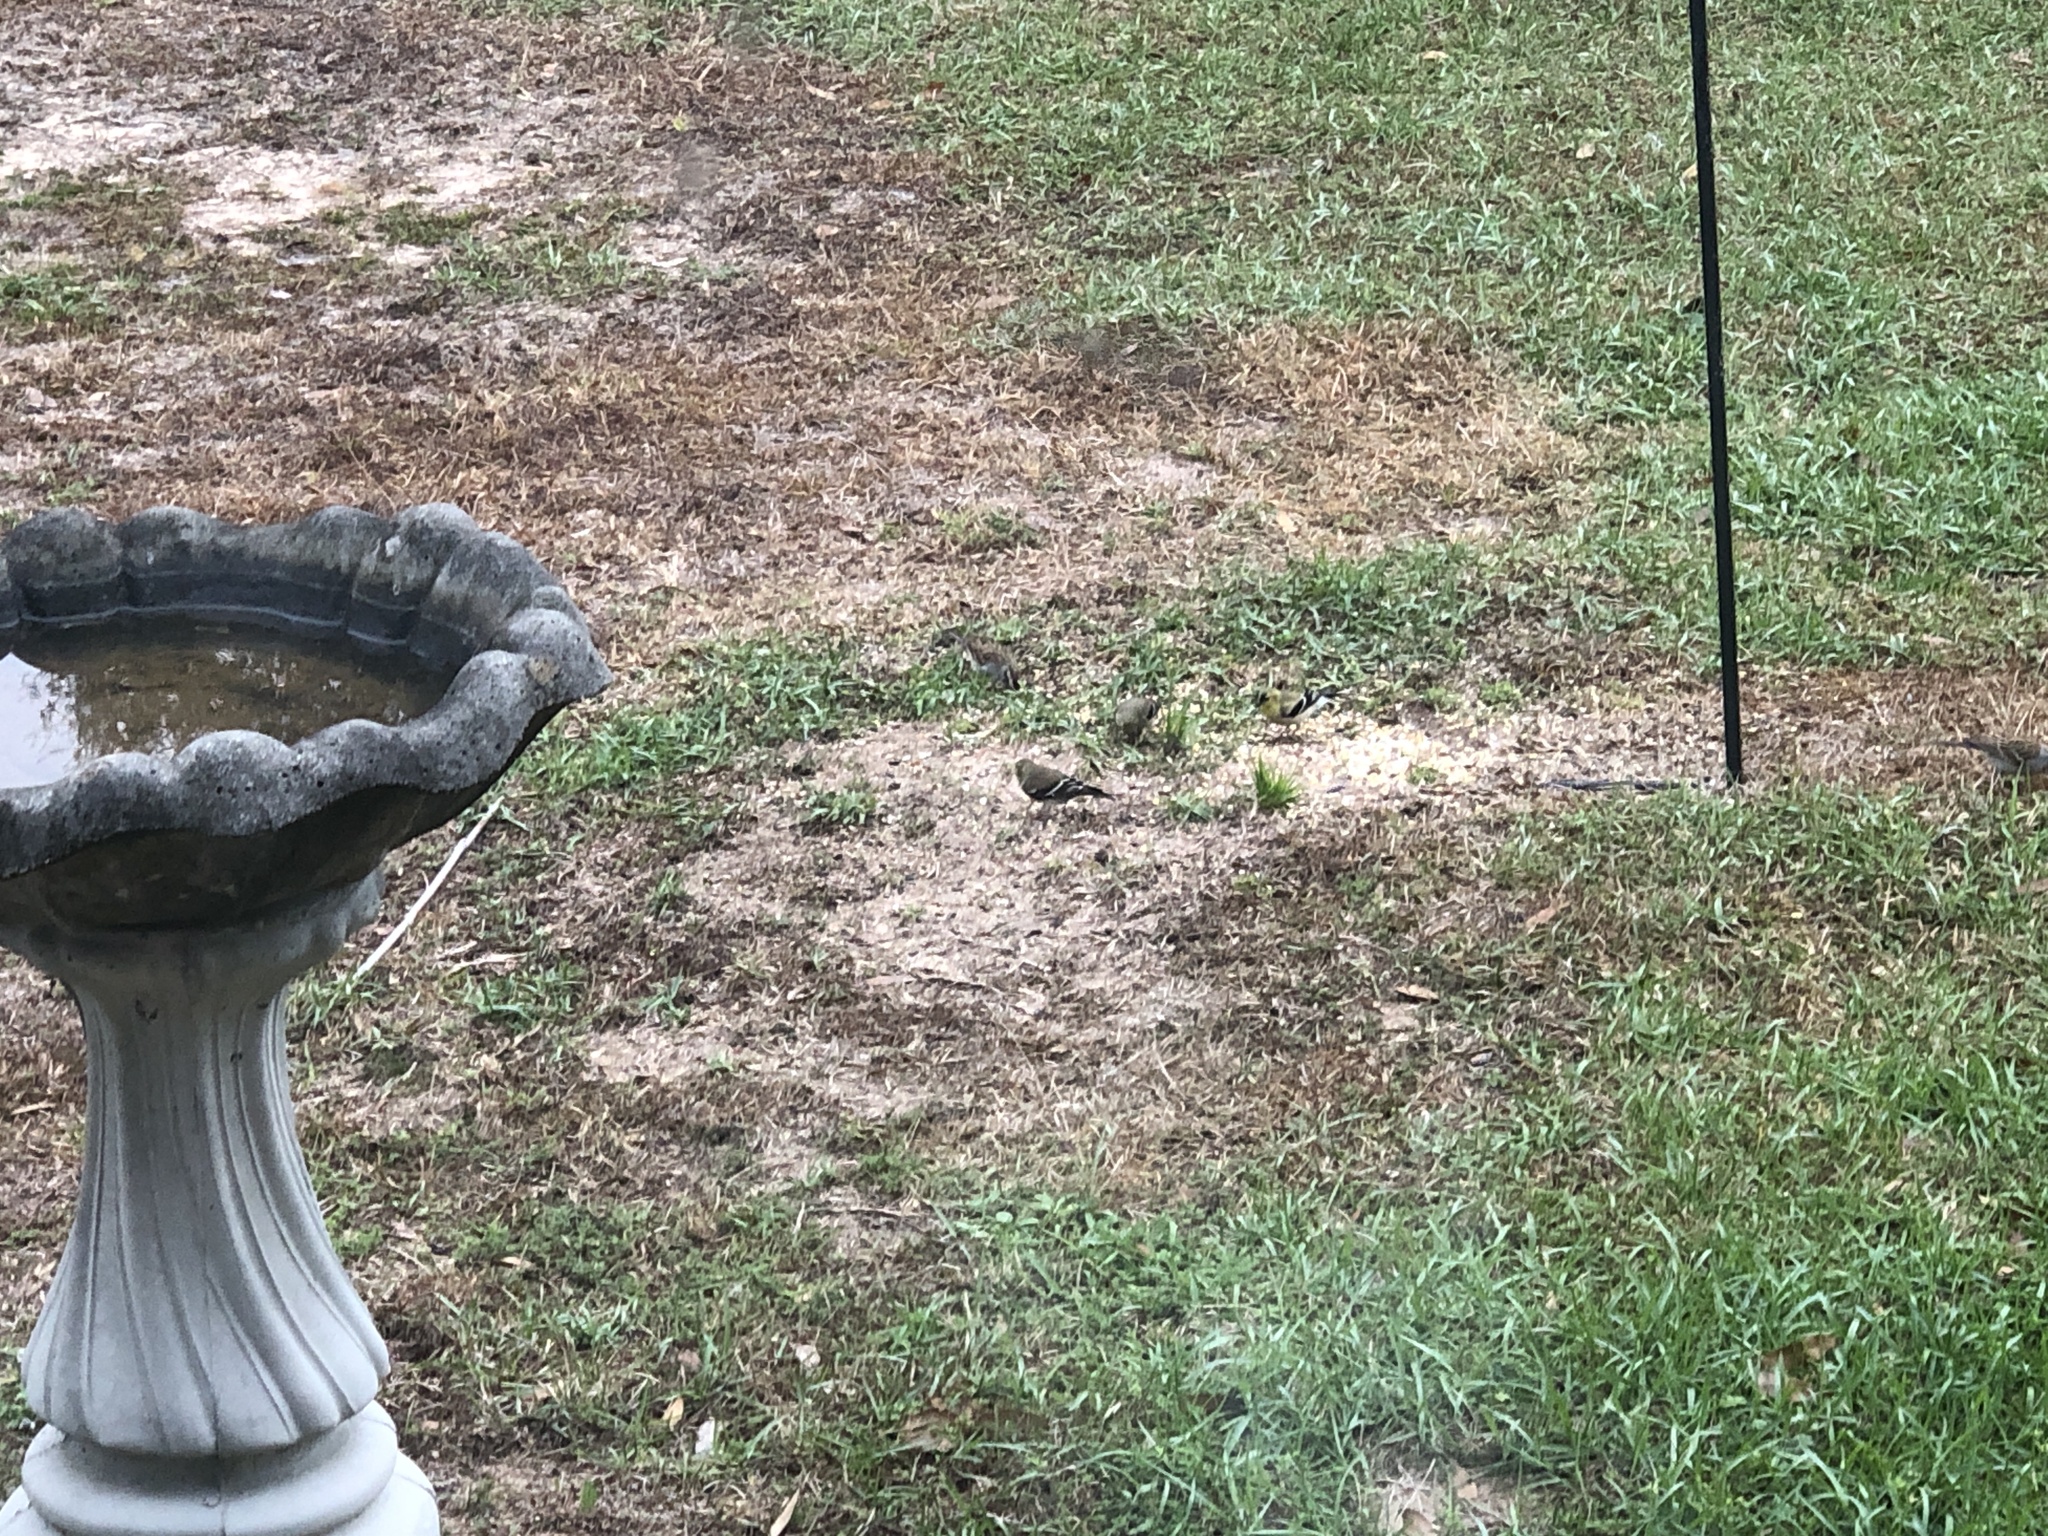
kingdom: Animalia
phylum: Chordata
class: Aves
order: Passeriformes
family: Fringillidae
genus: Spinus
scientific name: Spinus tristis
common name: American goldfinch
